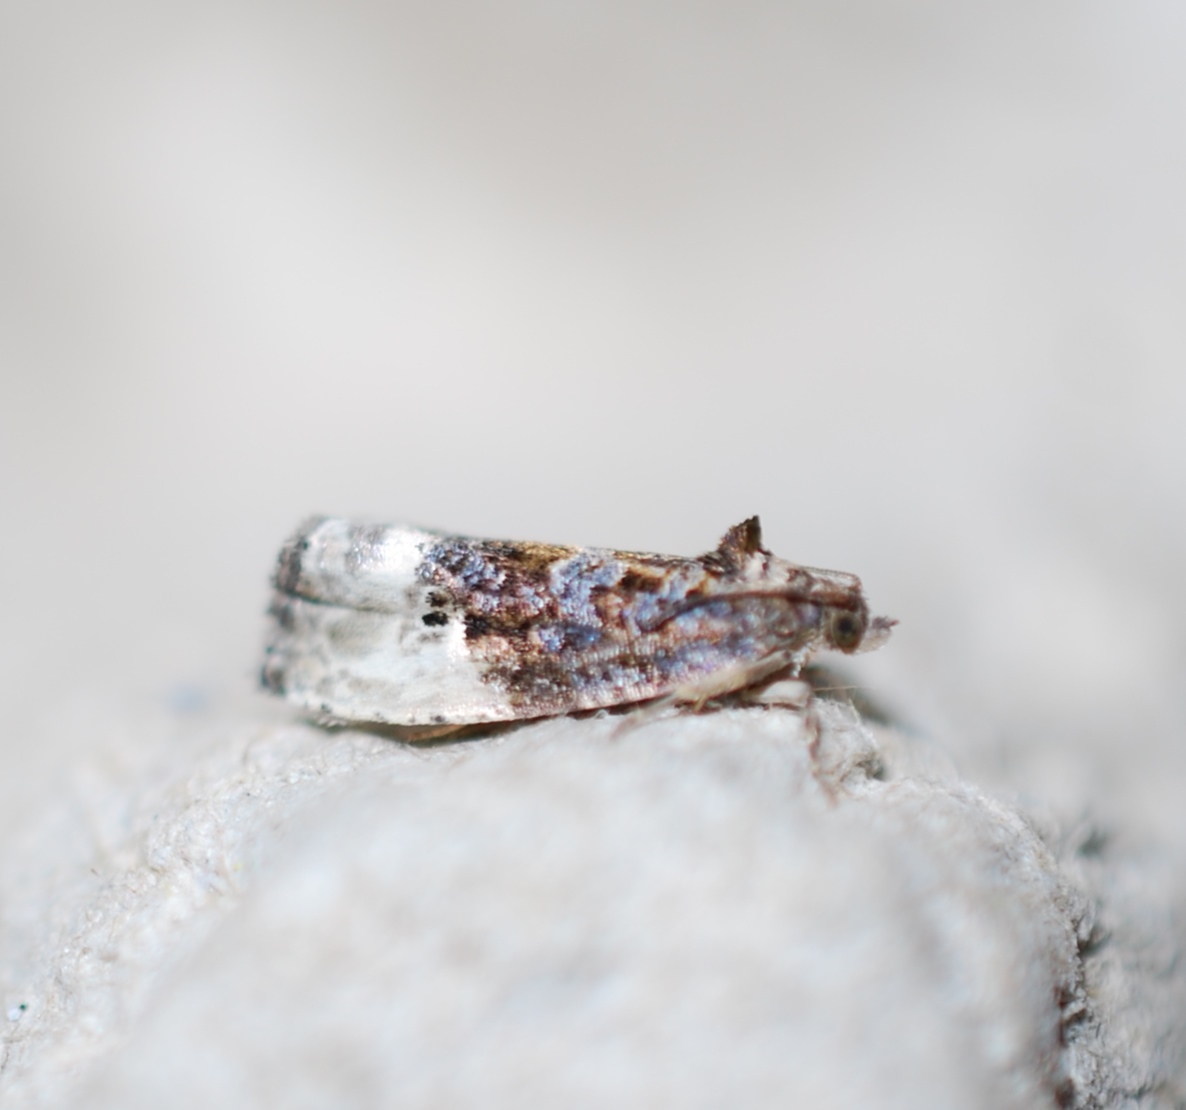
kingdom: Animalia
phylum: Arthropoda
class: Insecta
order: Lepidoptera
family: Tortricidae
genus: Hedya
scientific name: Hedya nubiferana
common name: Marbled orchard tortrix
